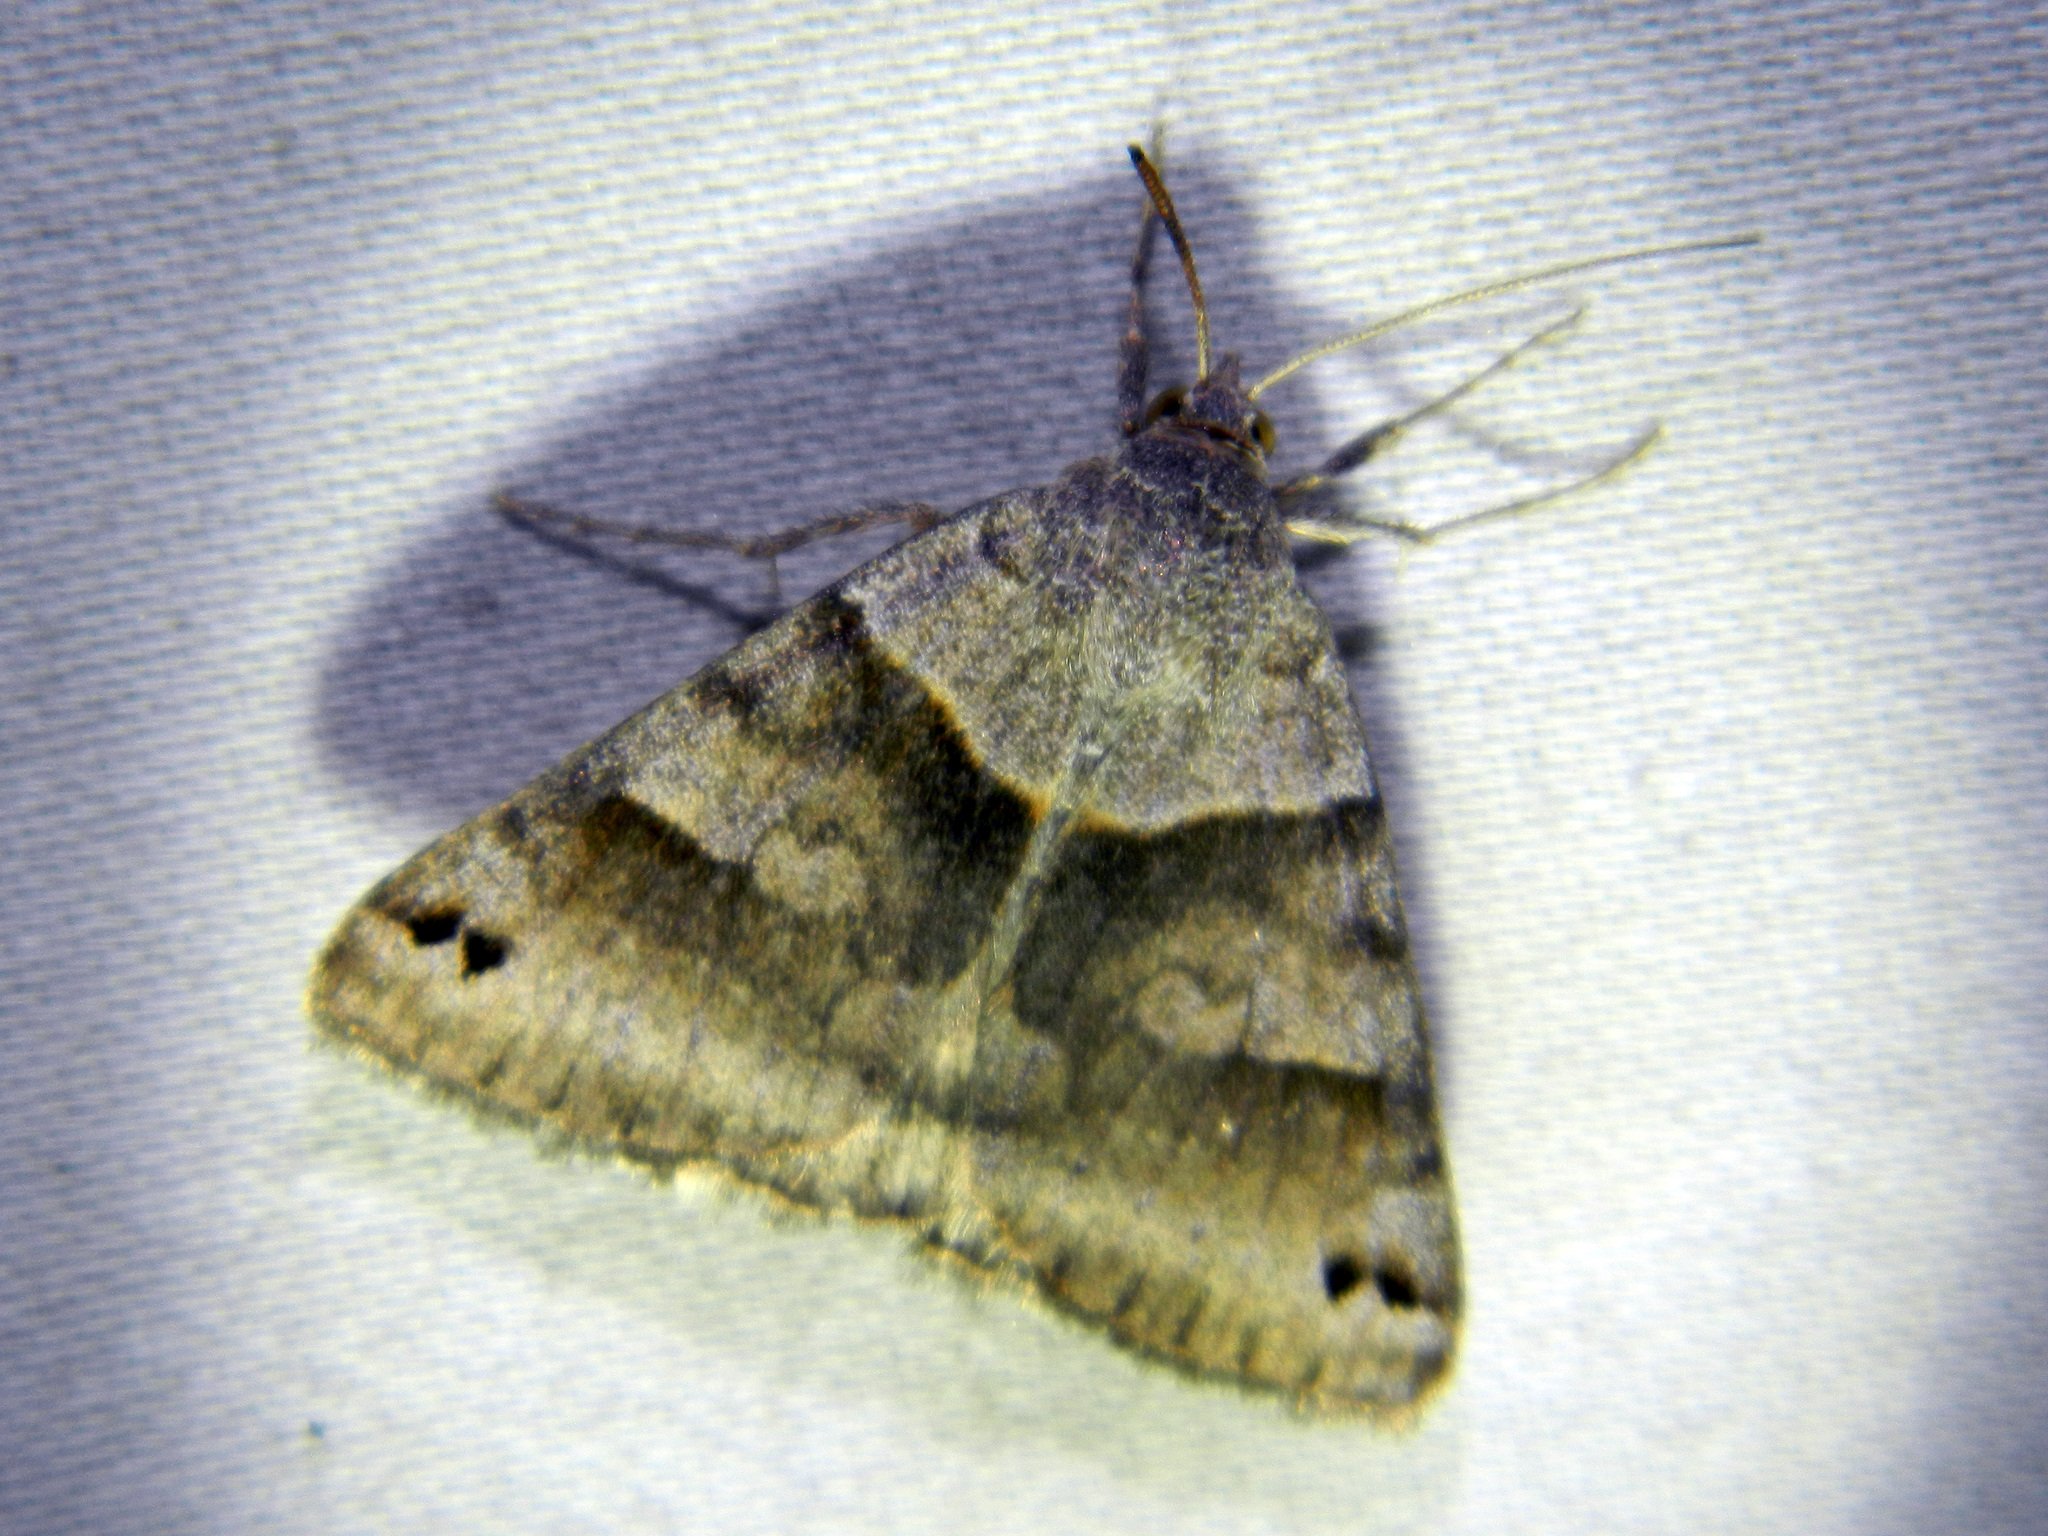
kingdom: Animalia
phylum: Arthropoda
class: Insecta
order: Lepidoptera
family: Erebidae
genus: Caenurgina
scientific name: Caenurgina crassiuscula
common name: Double-barred
